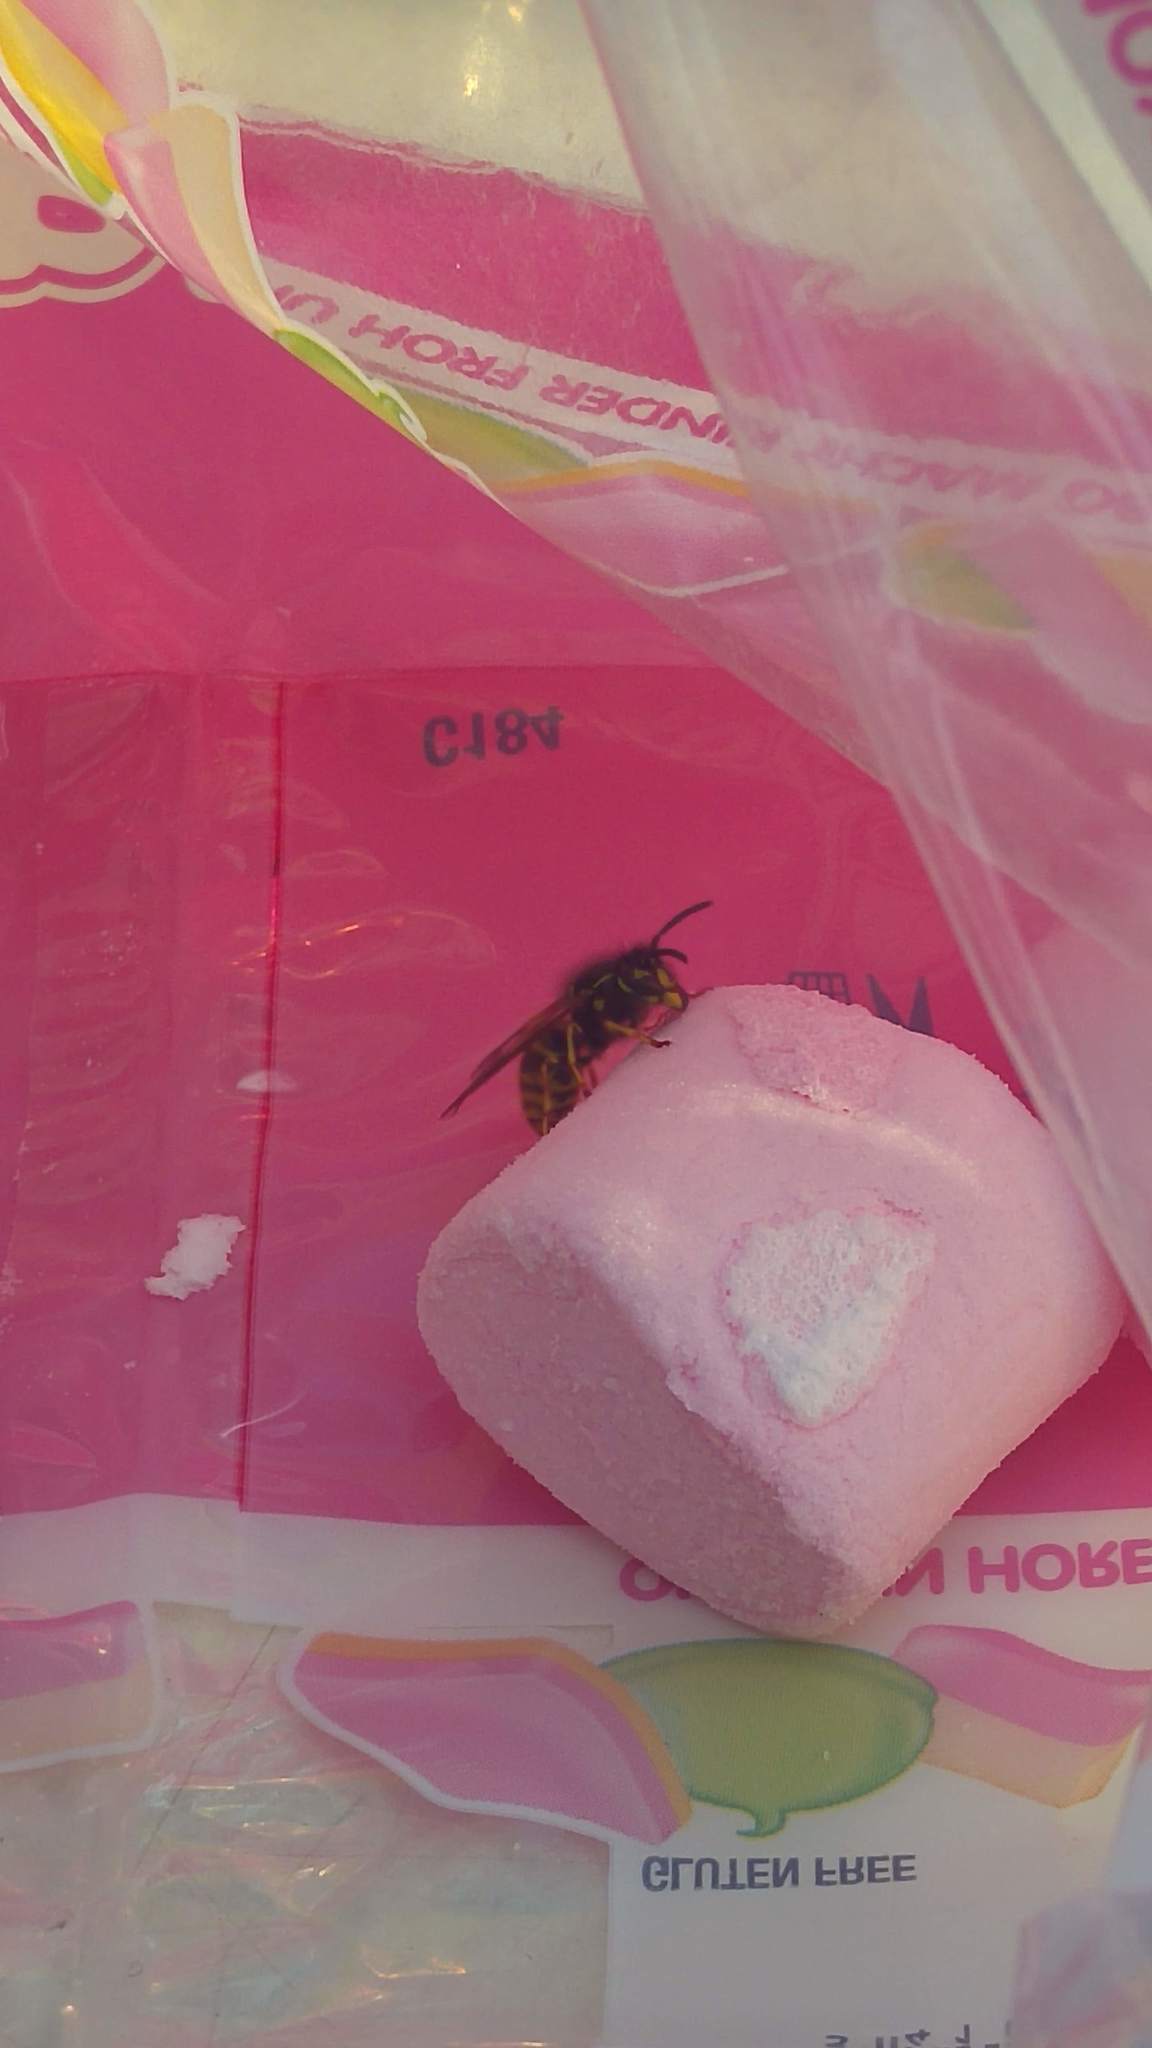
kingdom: Animalia
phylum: Arthropoda
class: Insecta
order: Hymenoptera
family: Vespidae
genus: Vespula
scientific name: Vespula vulgaris
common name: Common wasp
